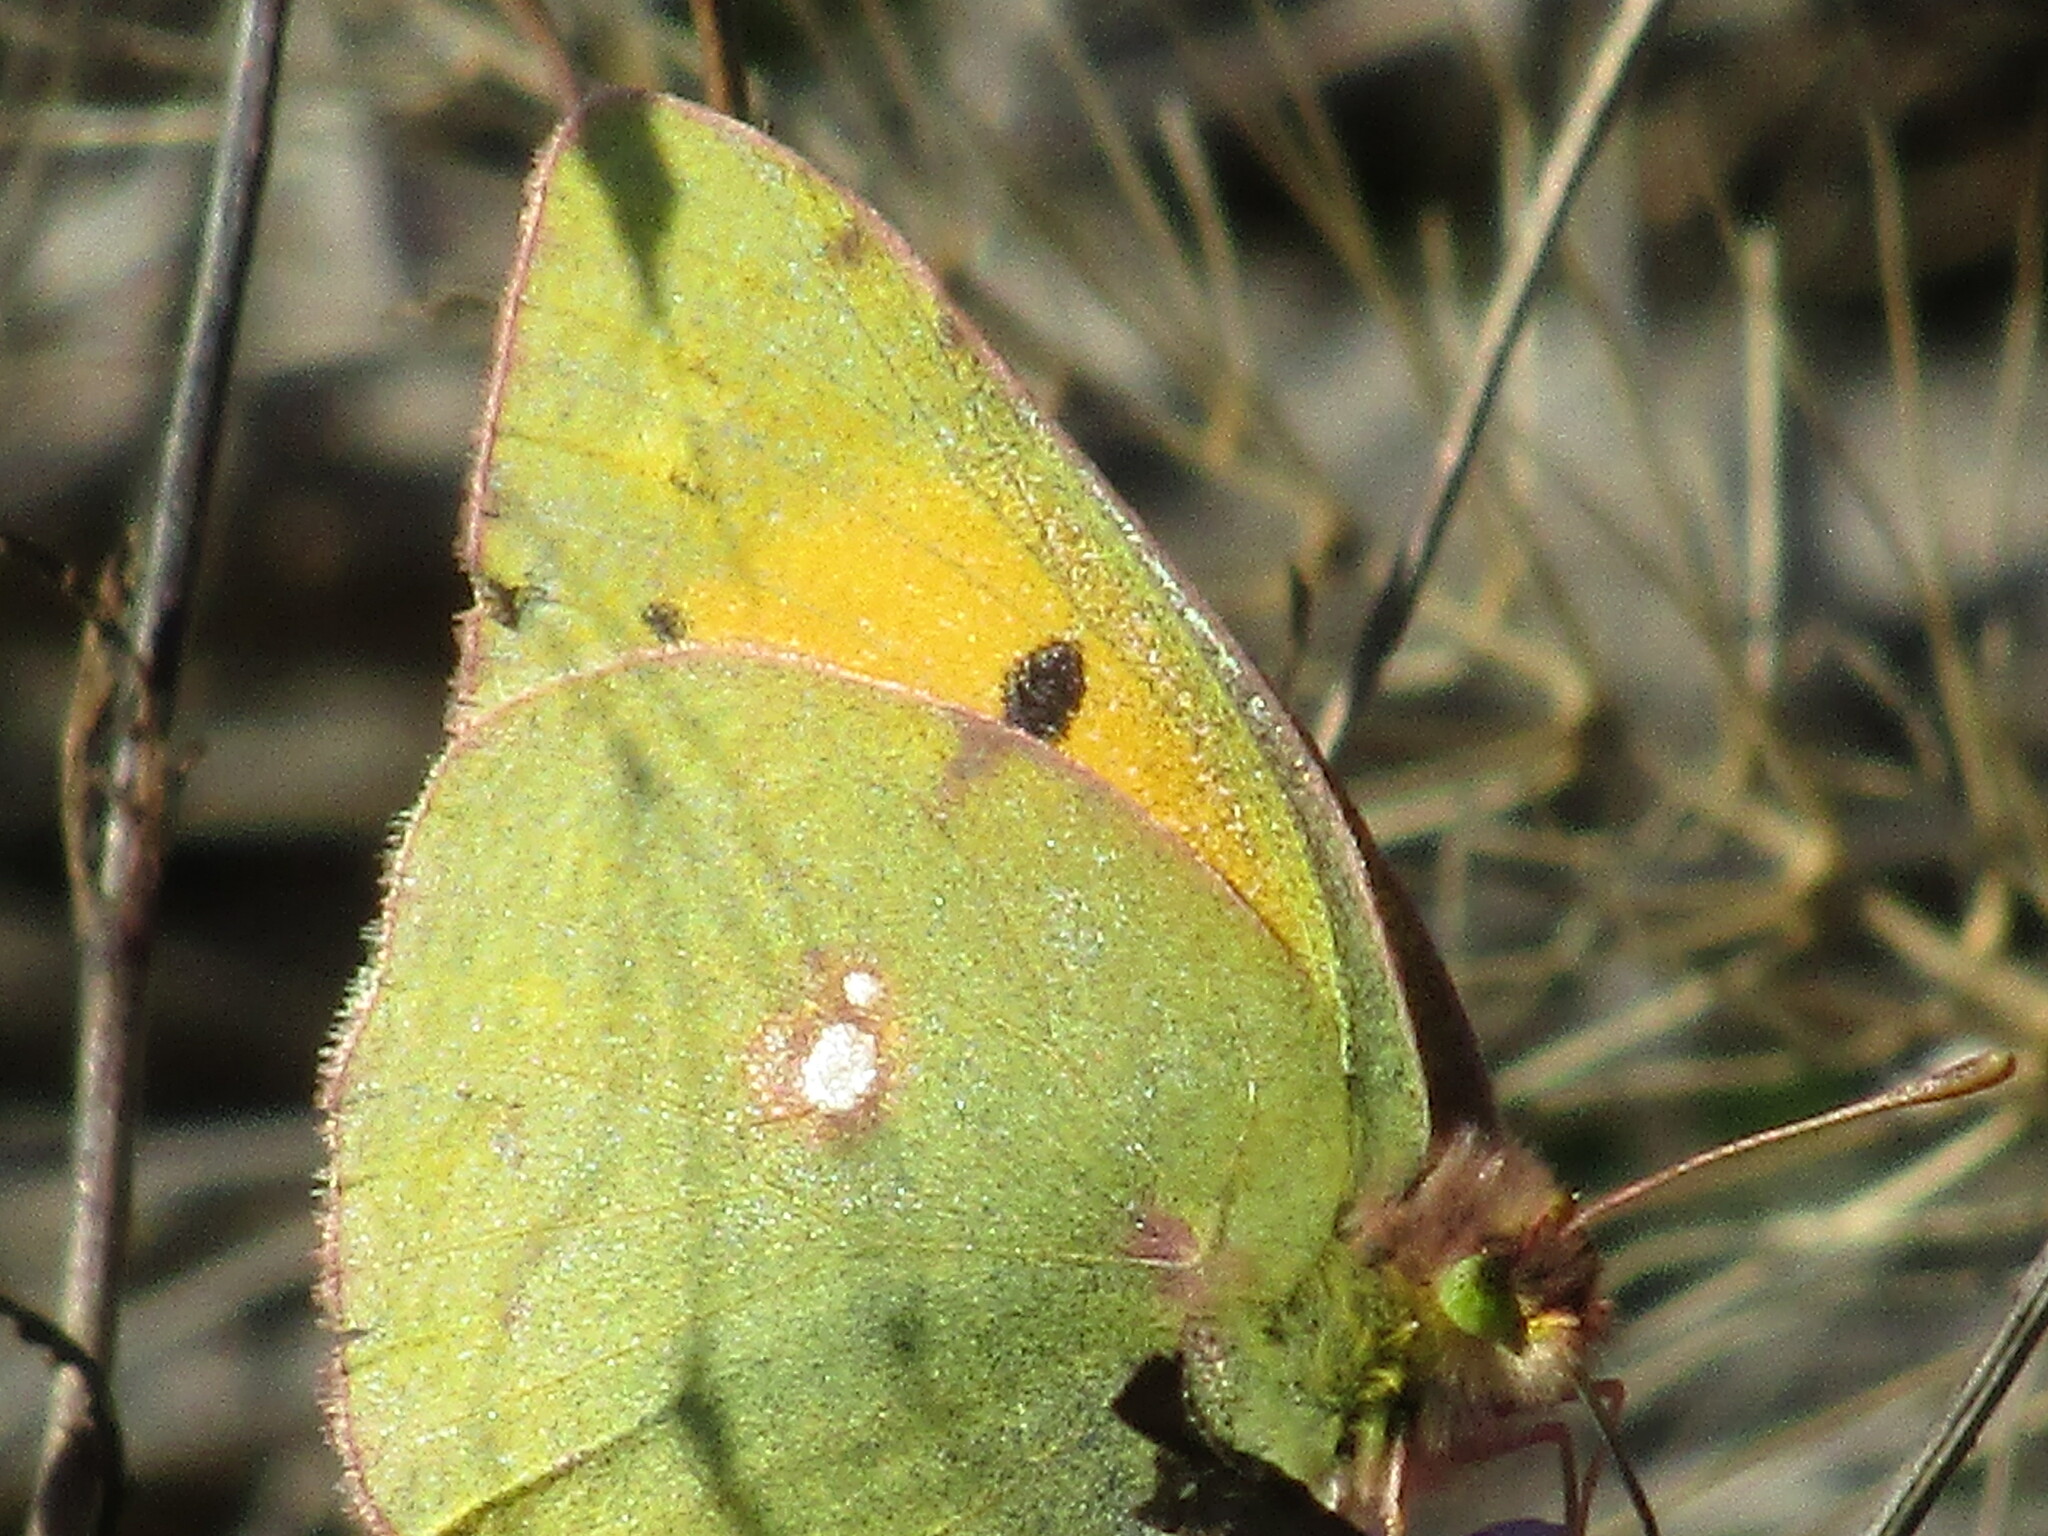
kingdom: Animalia
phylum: Arthropoda
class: Insecta
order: Lepidoptera
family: Pieridae
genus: Colias
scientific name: Colias croceus
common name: Clouded yellow
